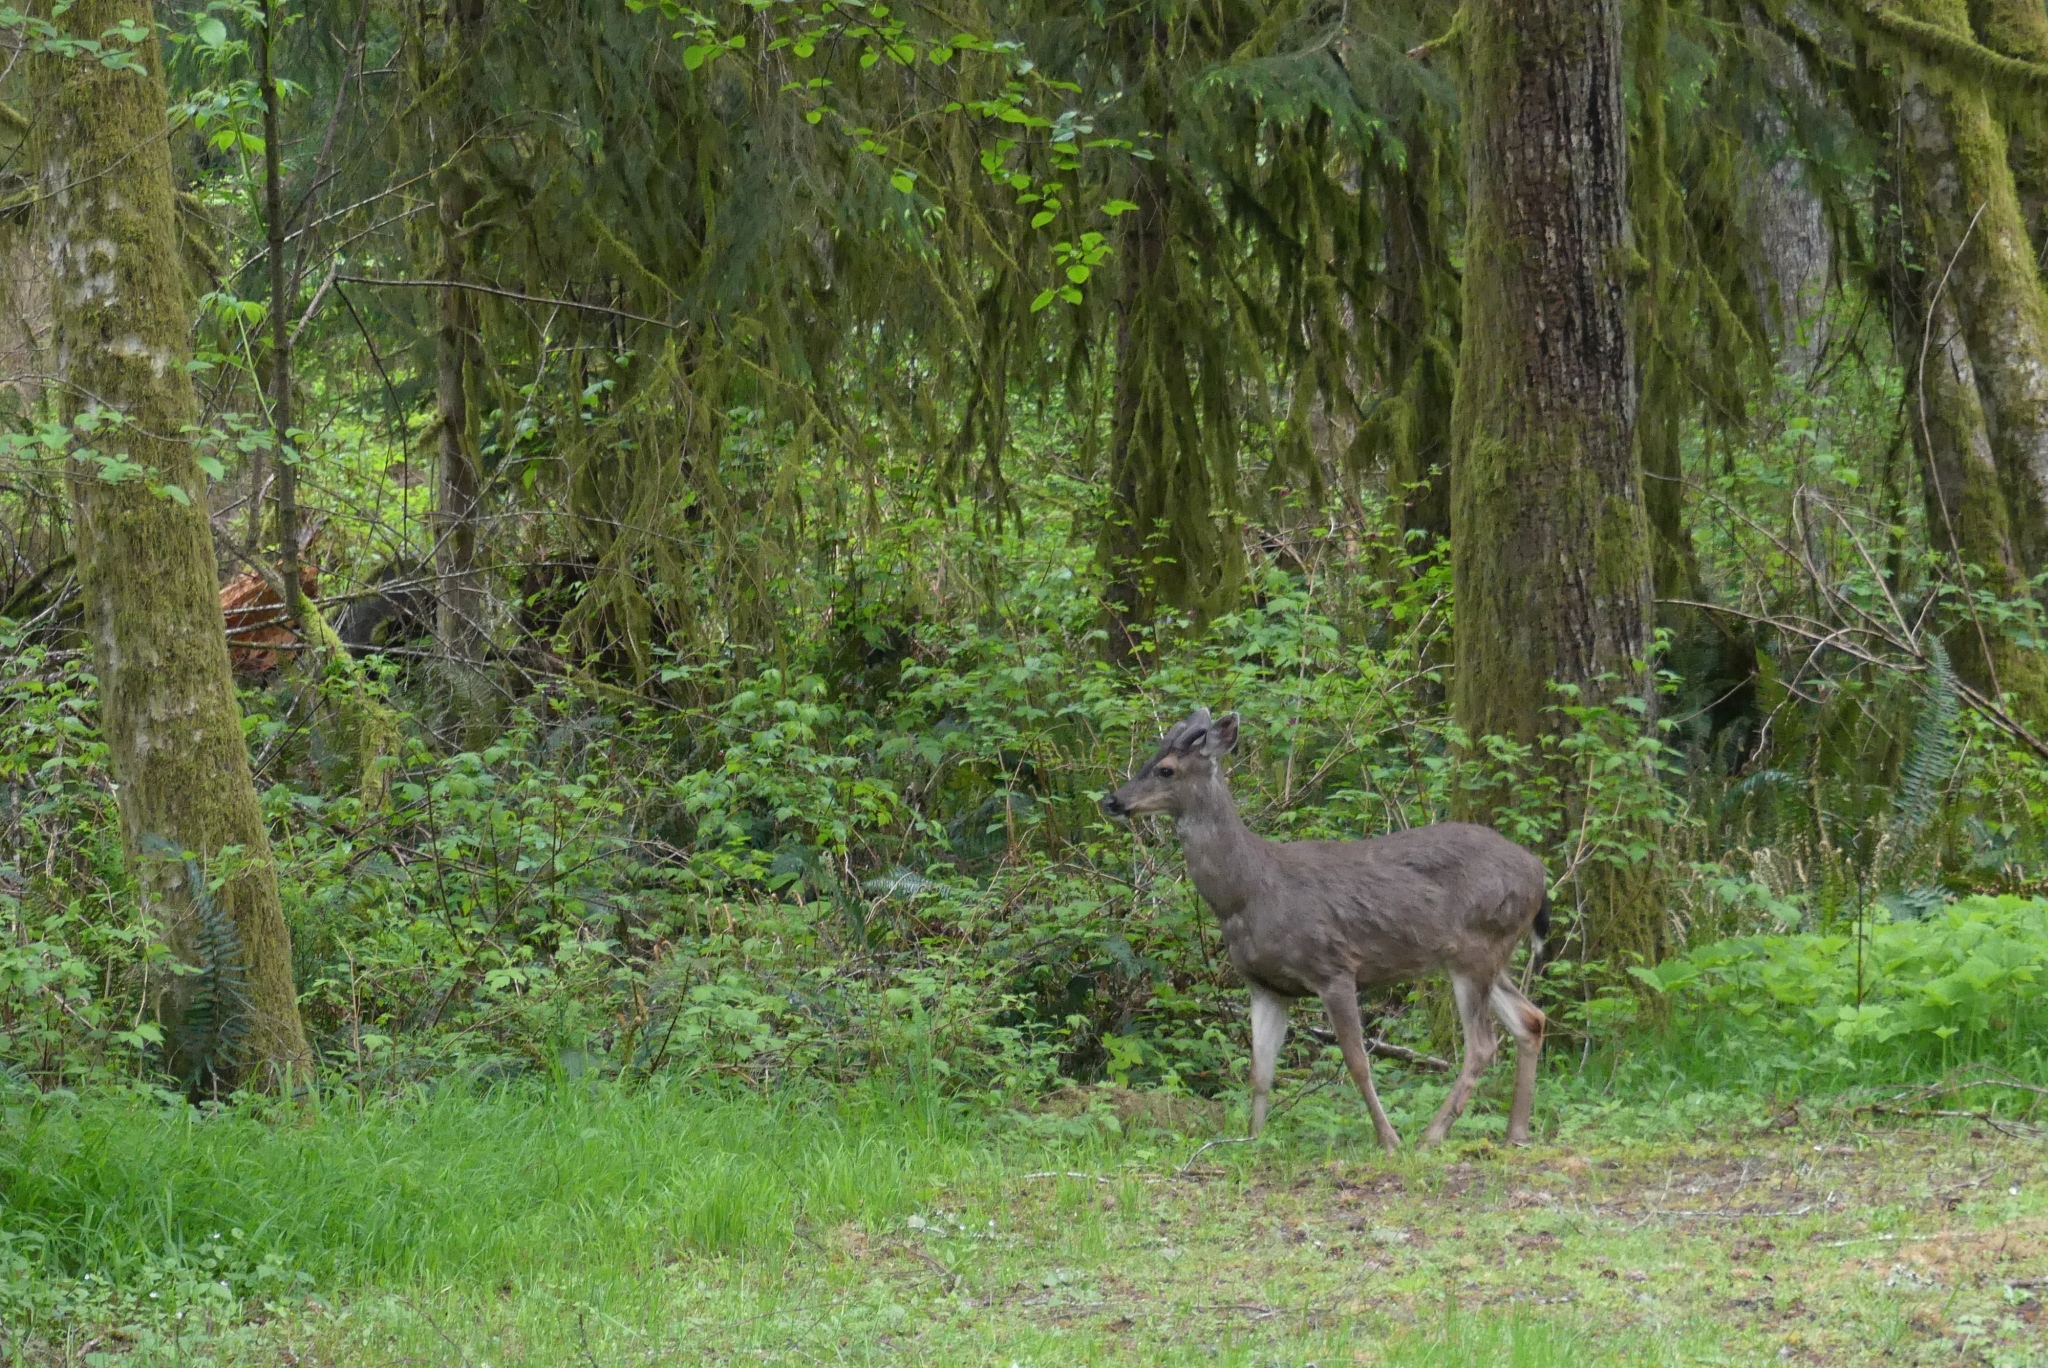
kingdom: Animalia
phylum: Chordata
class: Mammalia
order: Artiodactyla
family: Cervidae
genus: Odocoileus
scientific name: Odocoileus hemionus
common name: Mule deer
